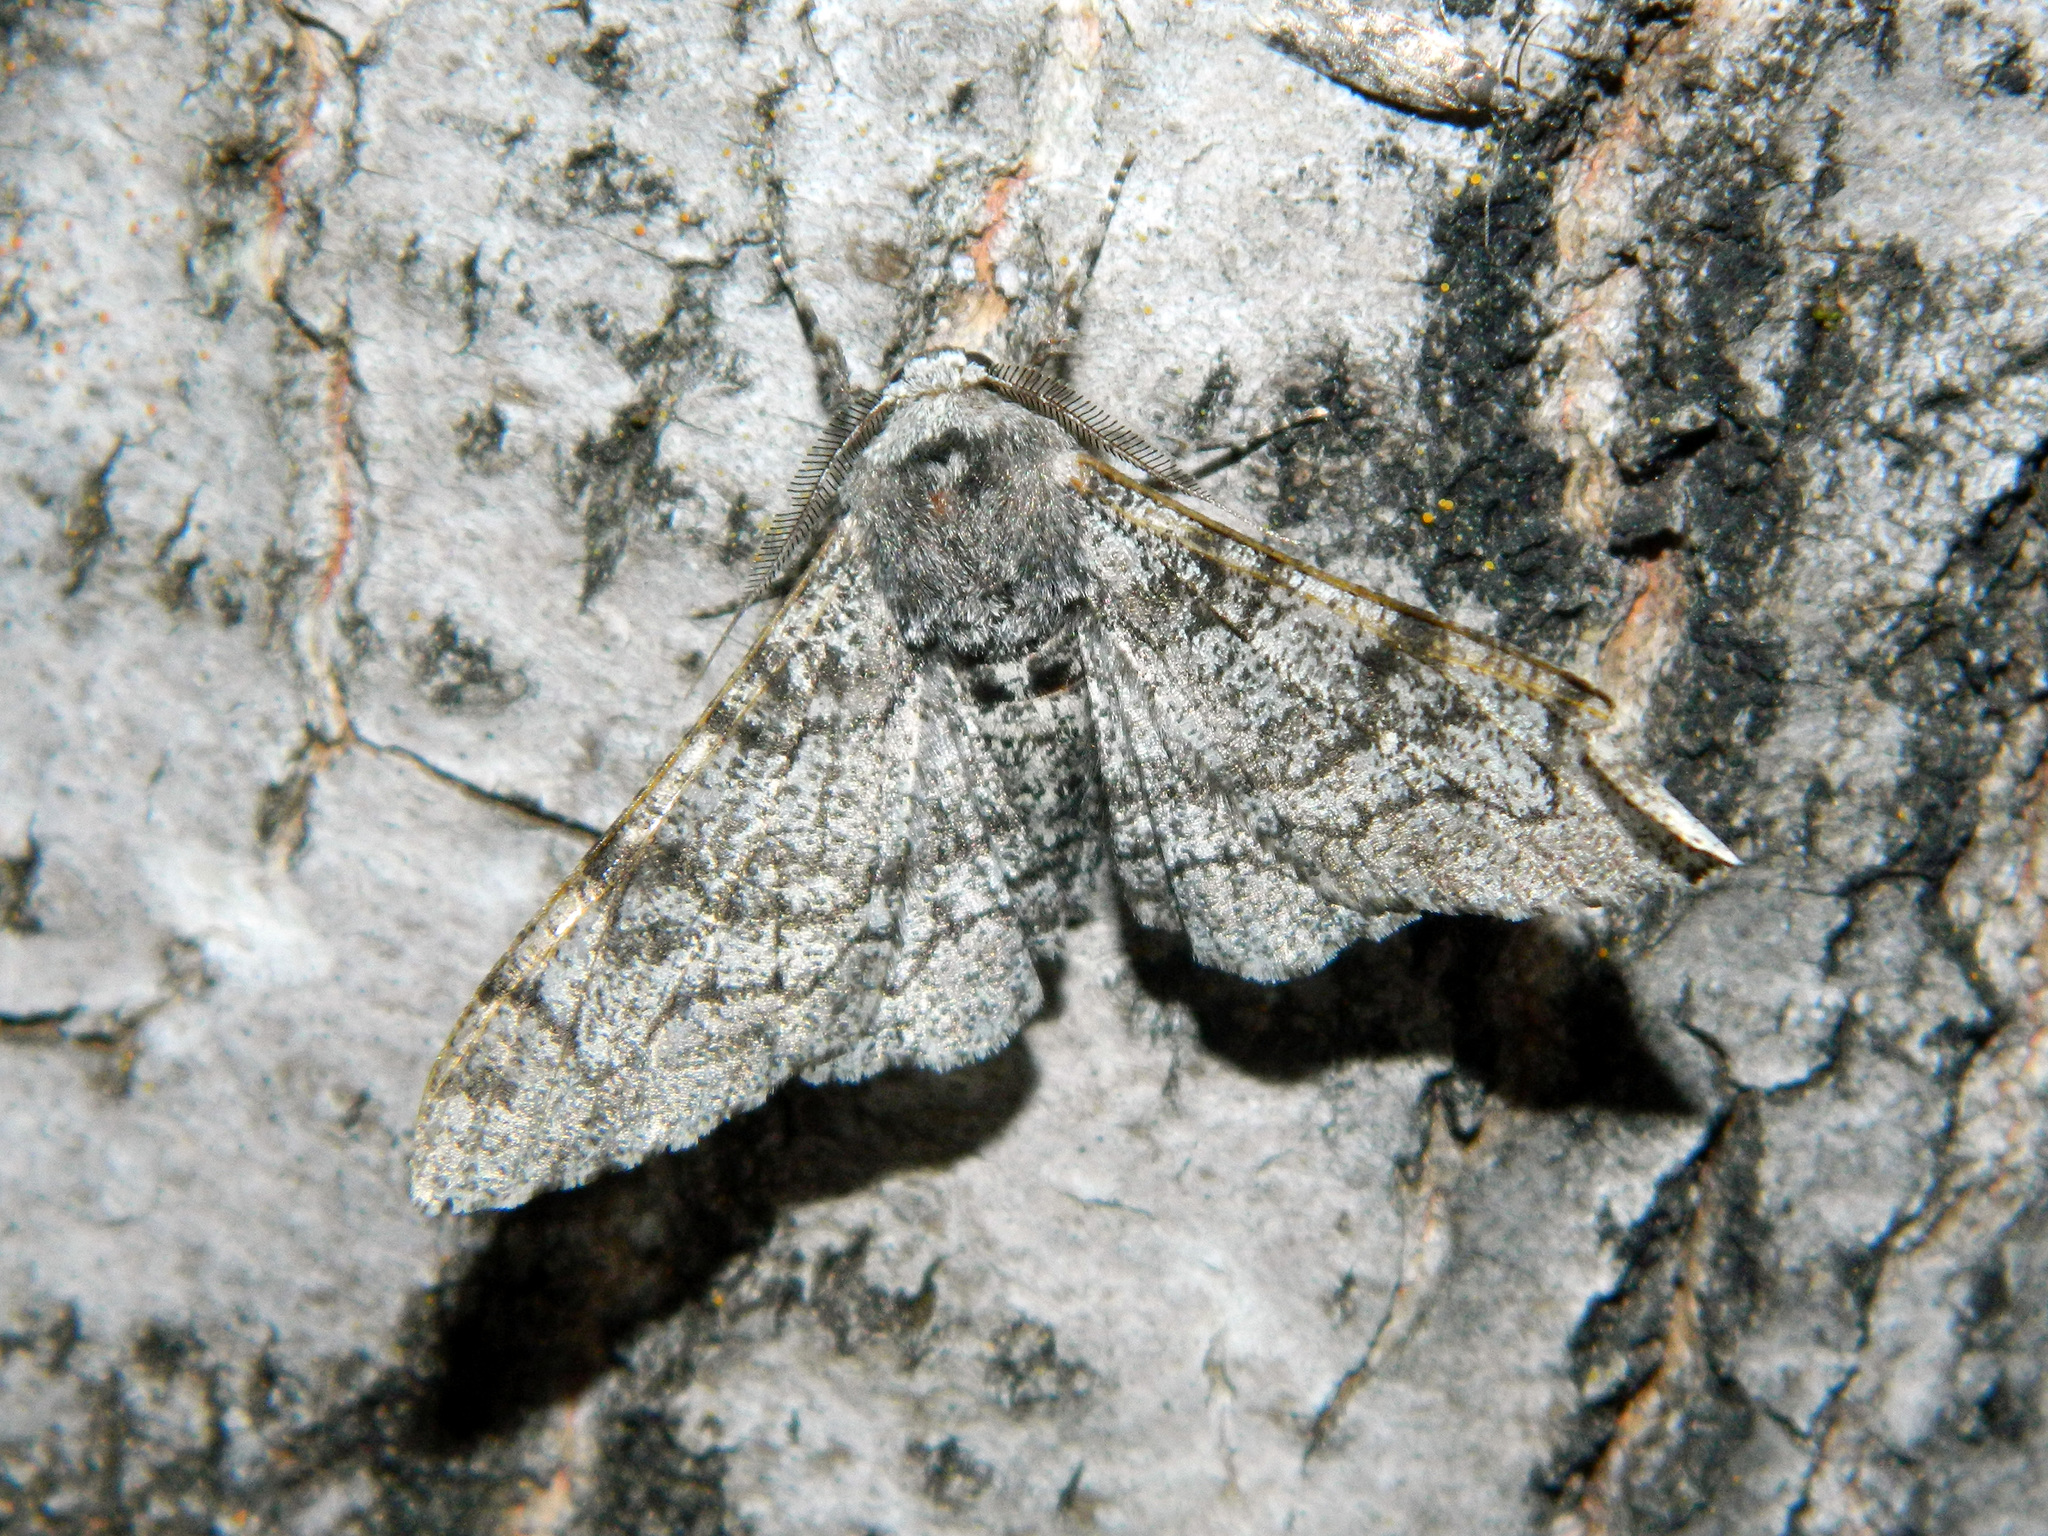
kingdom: Animalia
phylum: Arthropoda
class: Insecta
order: Lepidoptera
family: Geometridae
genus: Biston
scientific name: Biston betularia
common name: Peppered moth
